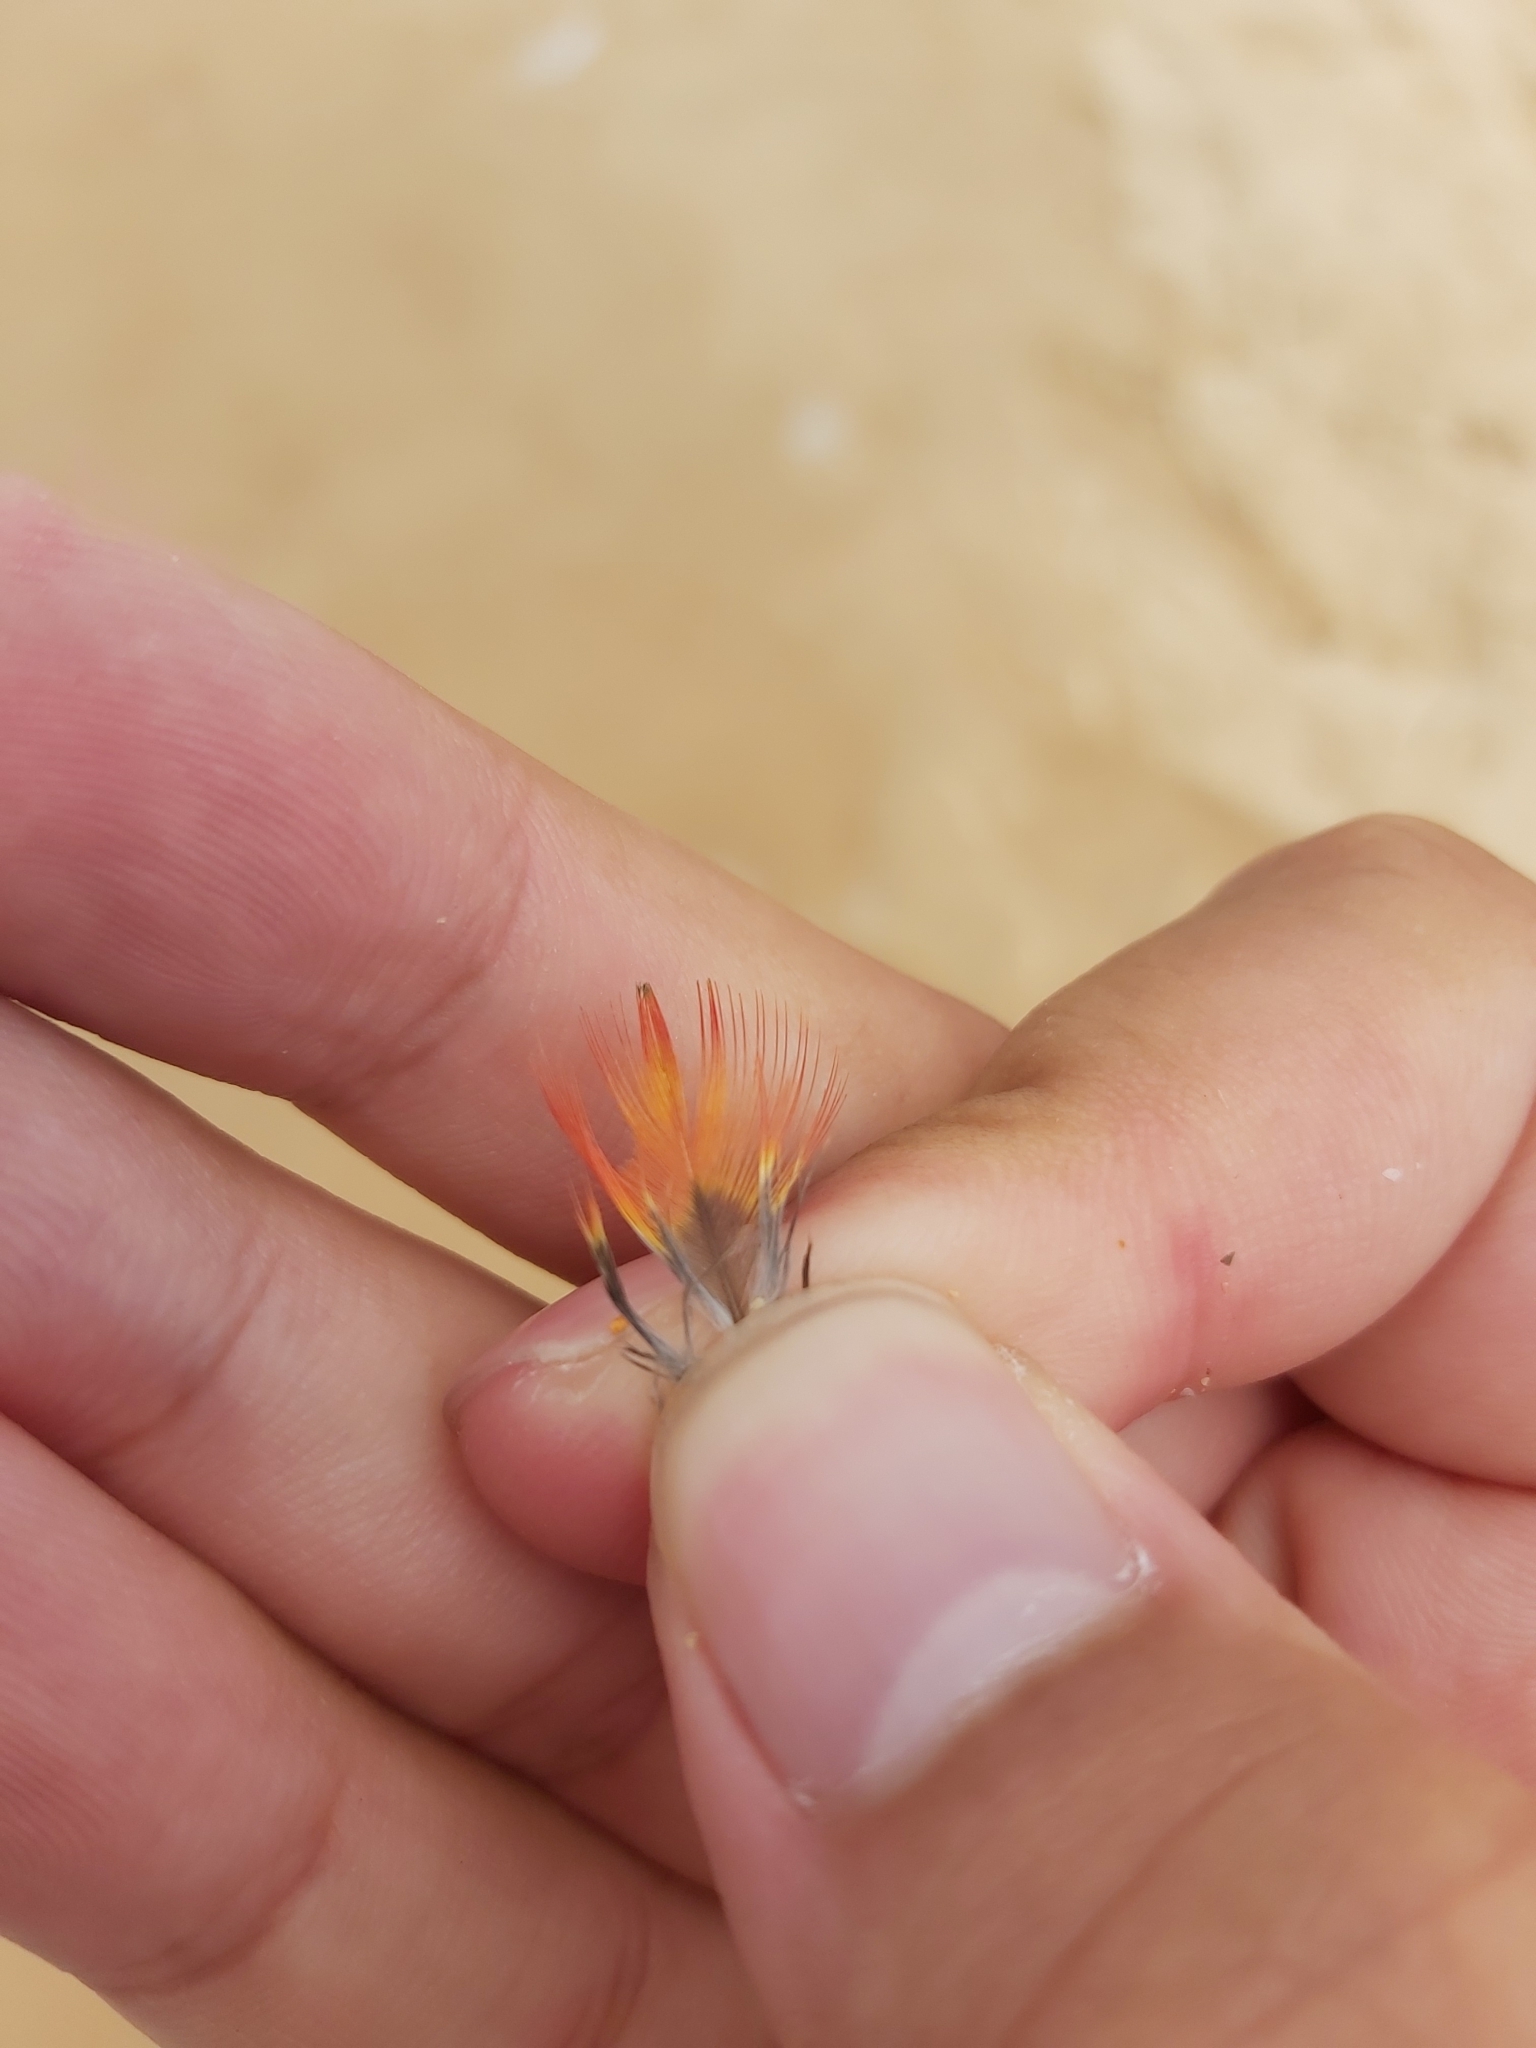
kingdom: Animalia
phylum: Chordata
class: Aves
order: Psittaciformes
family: Psittacidae
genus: Trichoglossus
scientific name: Trichoglossus haematodus
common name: Coconut lorikeet
